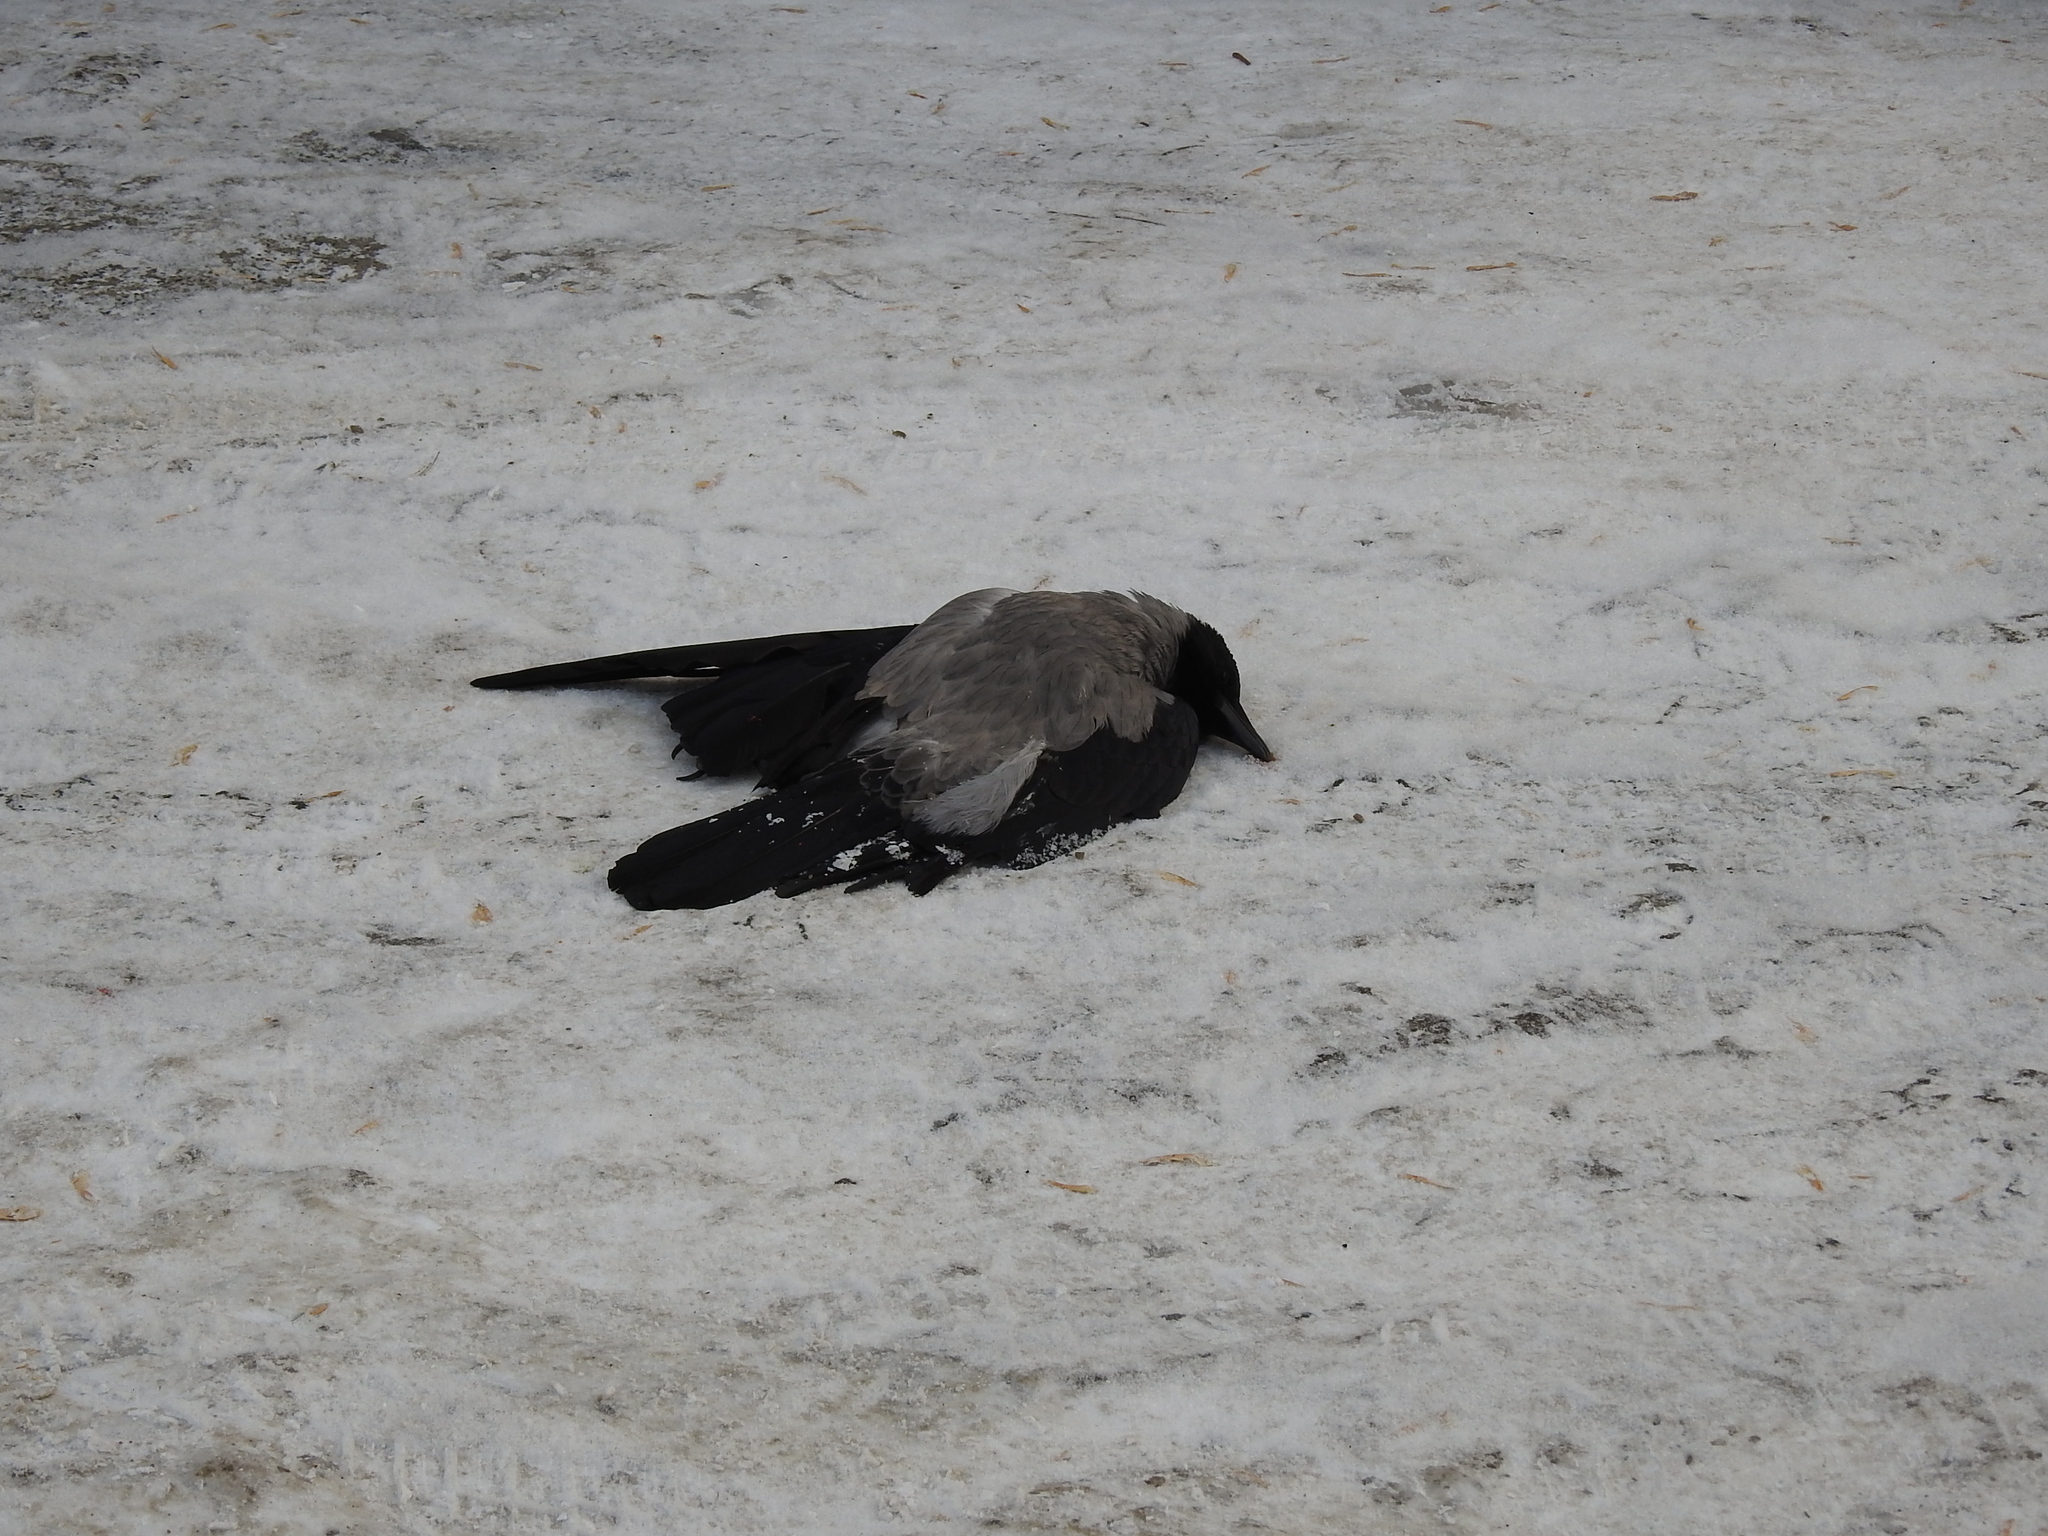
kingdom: Animalia
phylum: Chordata
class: Aves
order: Passeriformes
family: Corvidae
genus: Corvus
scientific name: Corvus cornix
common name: Hooded crow
